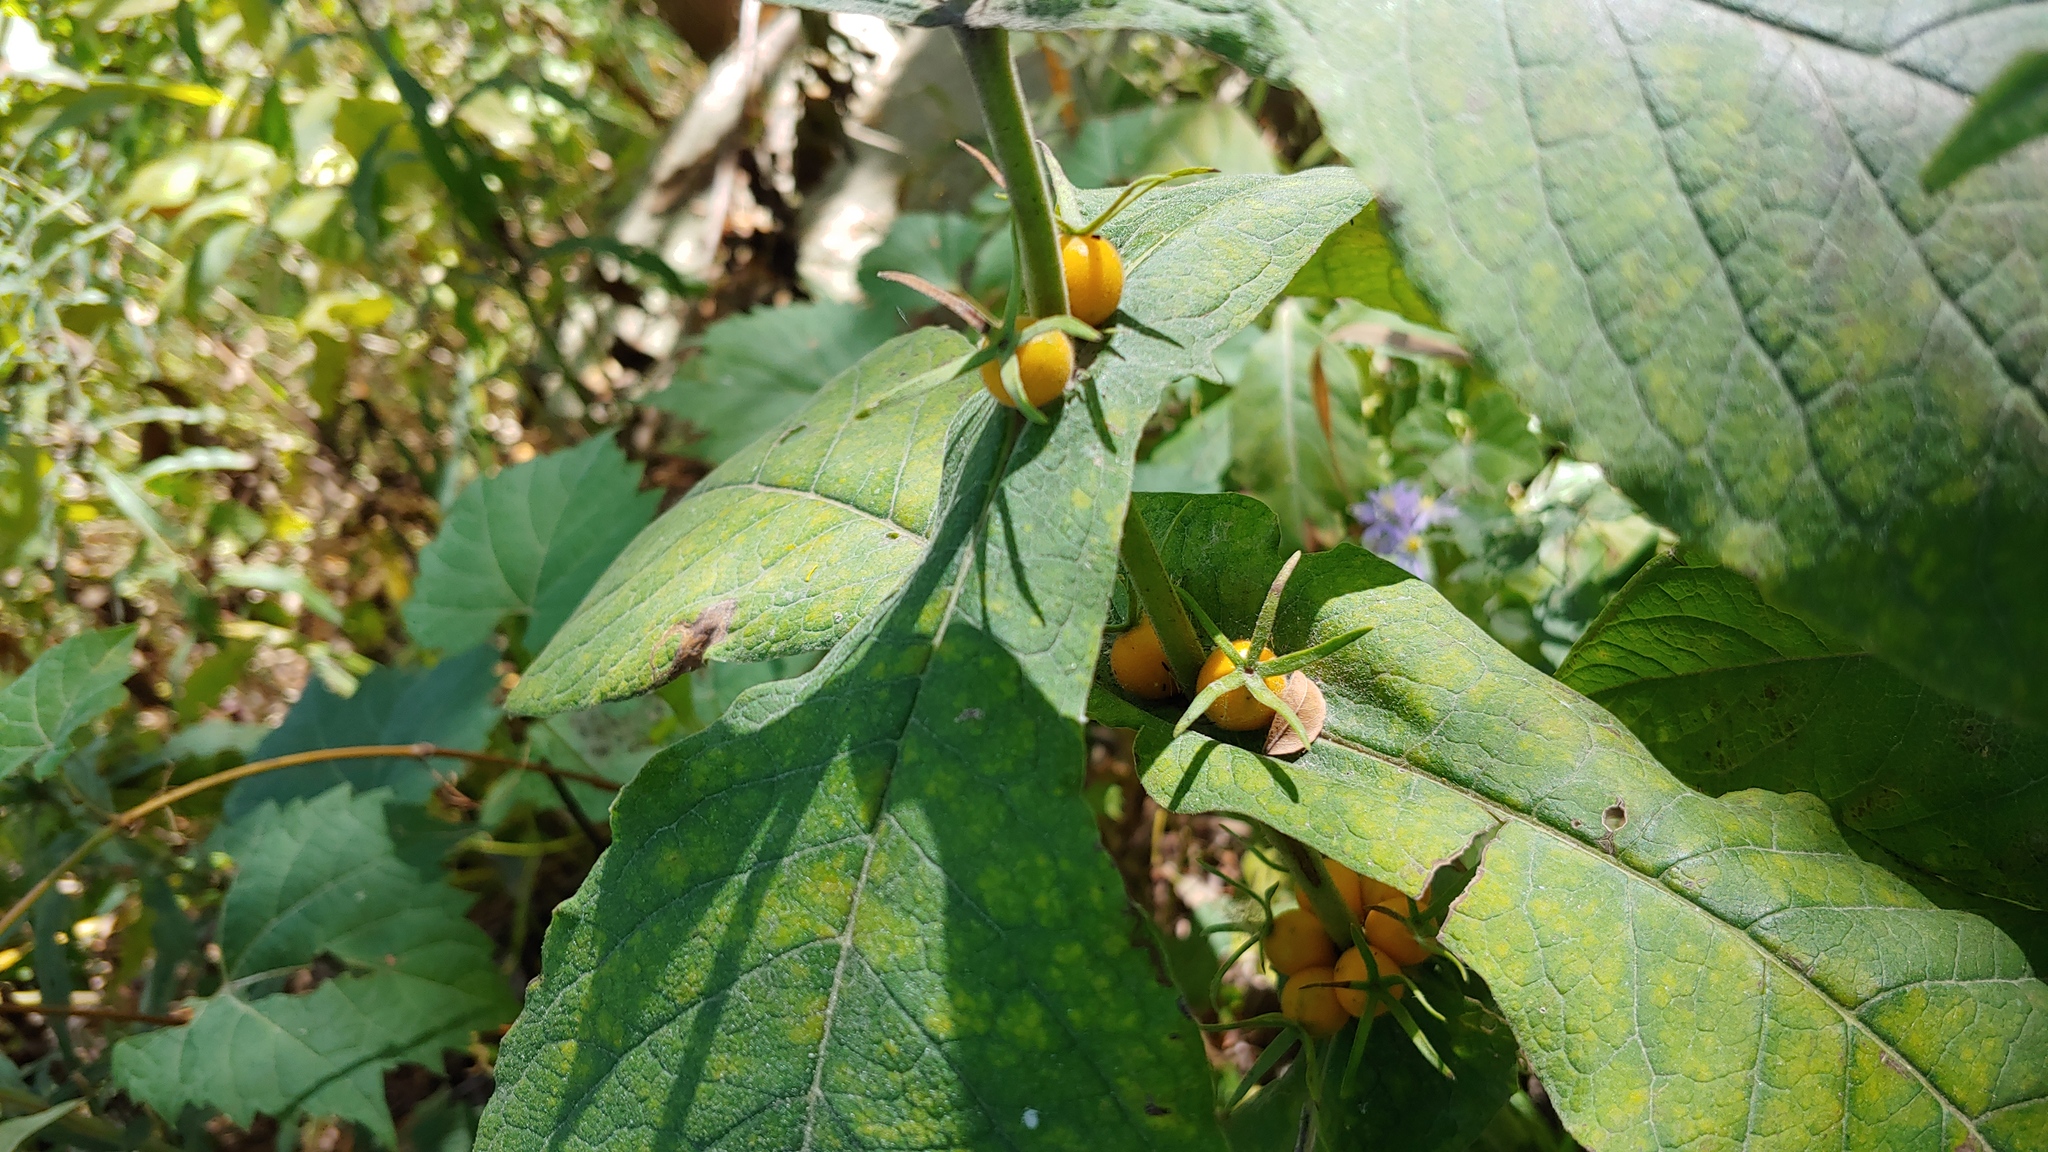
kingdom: Plantae
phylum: Tracheophyta
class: Magnoliopsida
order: Dipsacales
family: Caprifoliaceae
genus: Triosteum
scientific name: Triosteum perfoliatum
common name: Common horse-gentian
